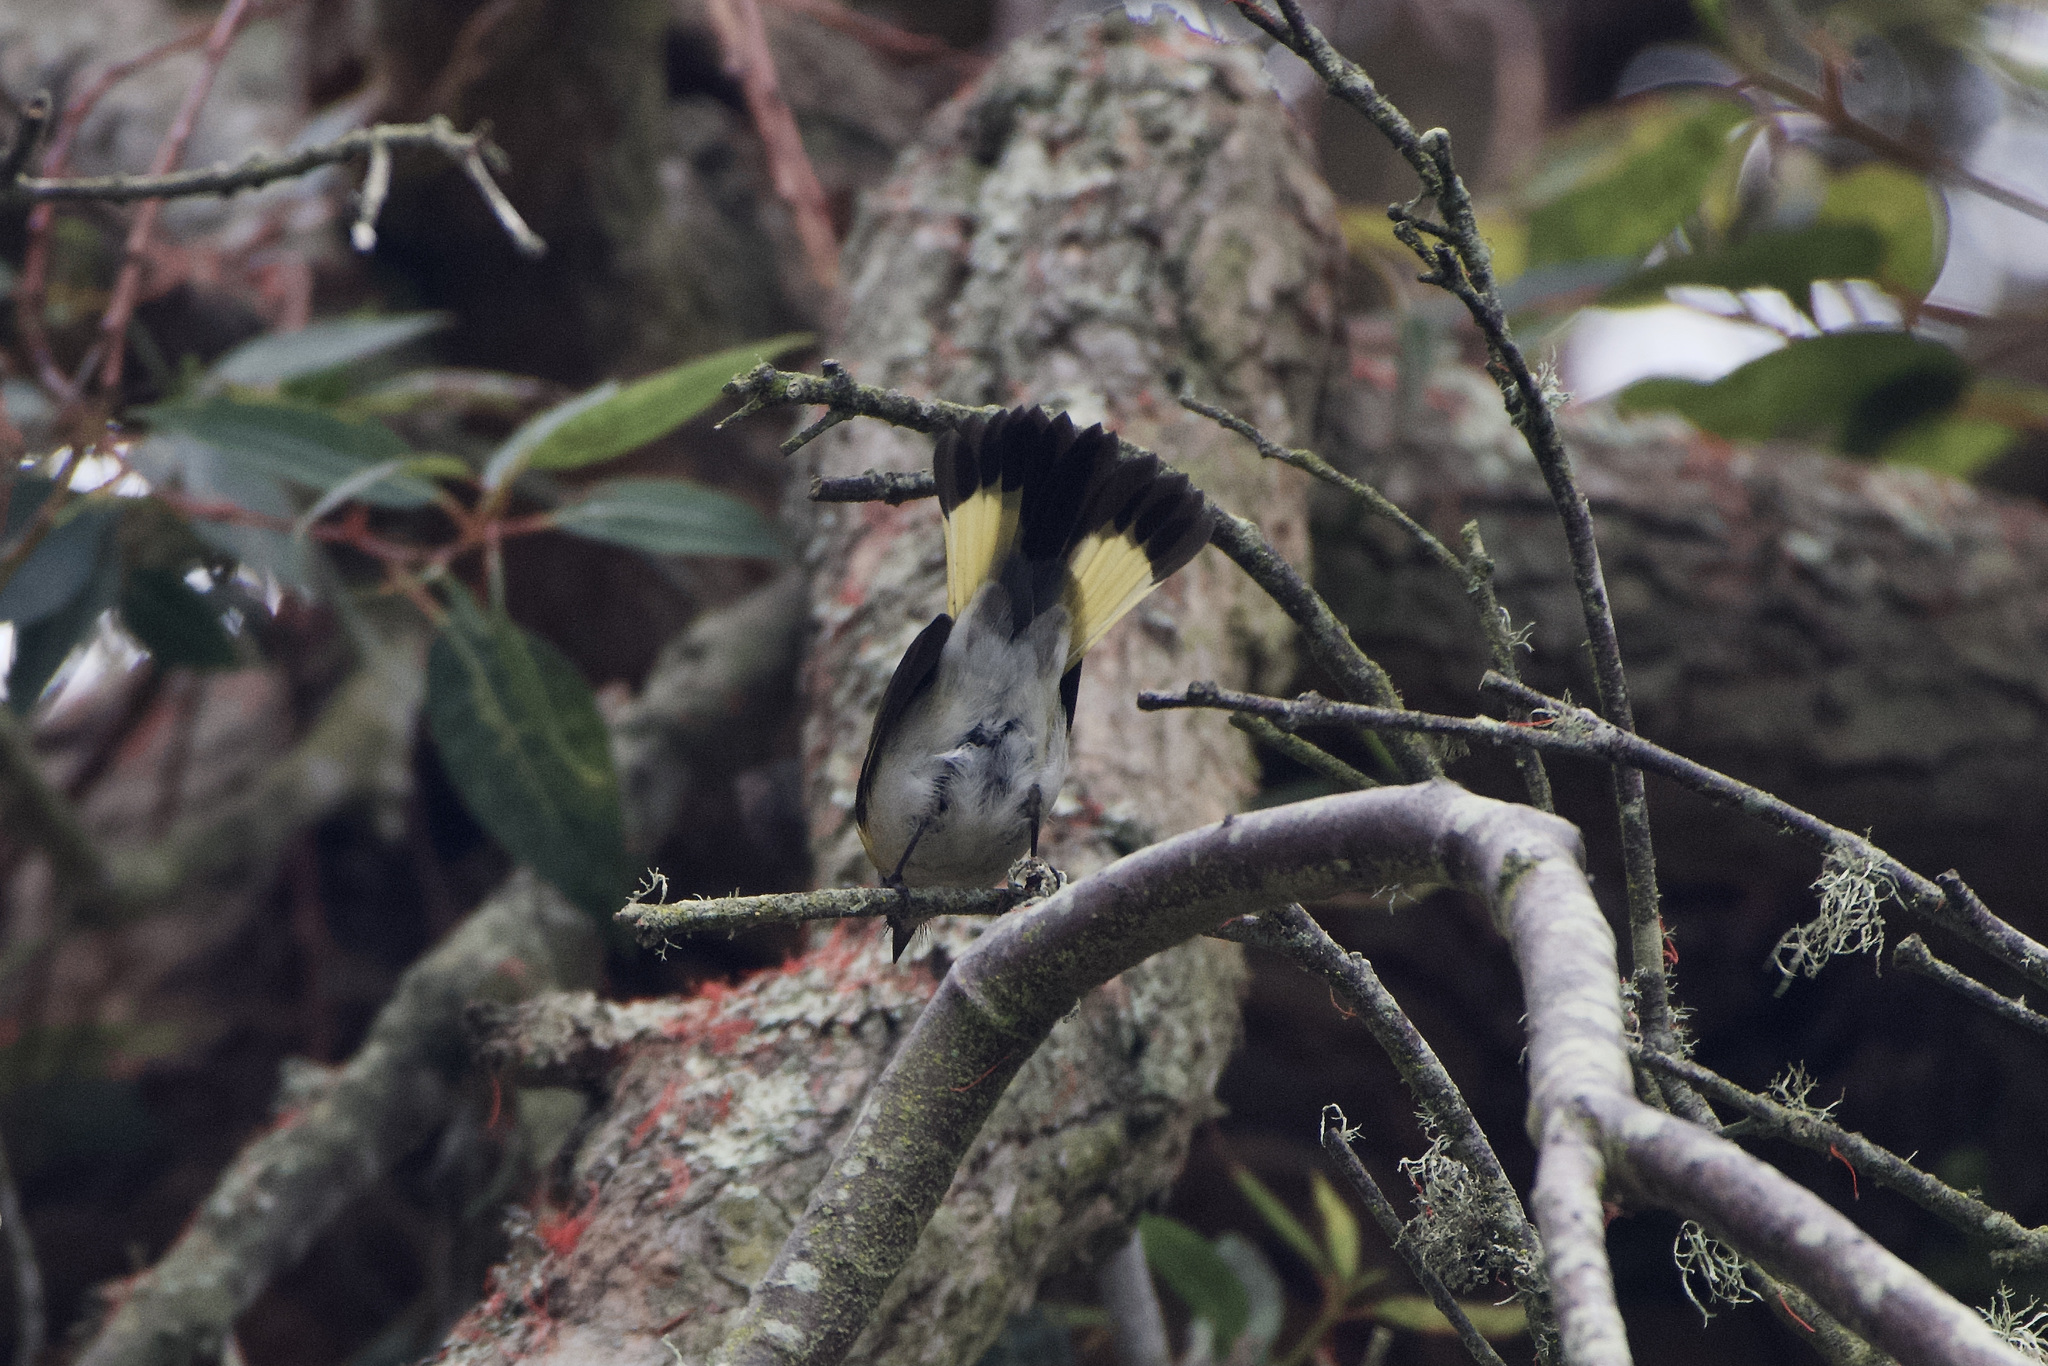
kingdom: Animalia
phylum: Chordata
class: Aves
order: Passeriformes
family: Parulidae
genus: Setophaga
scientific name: Setophaga ruticilla
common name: American redstart
